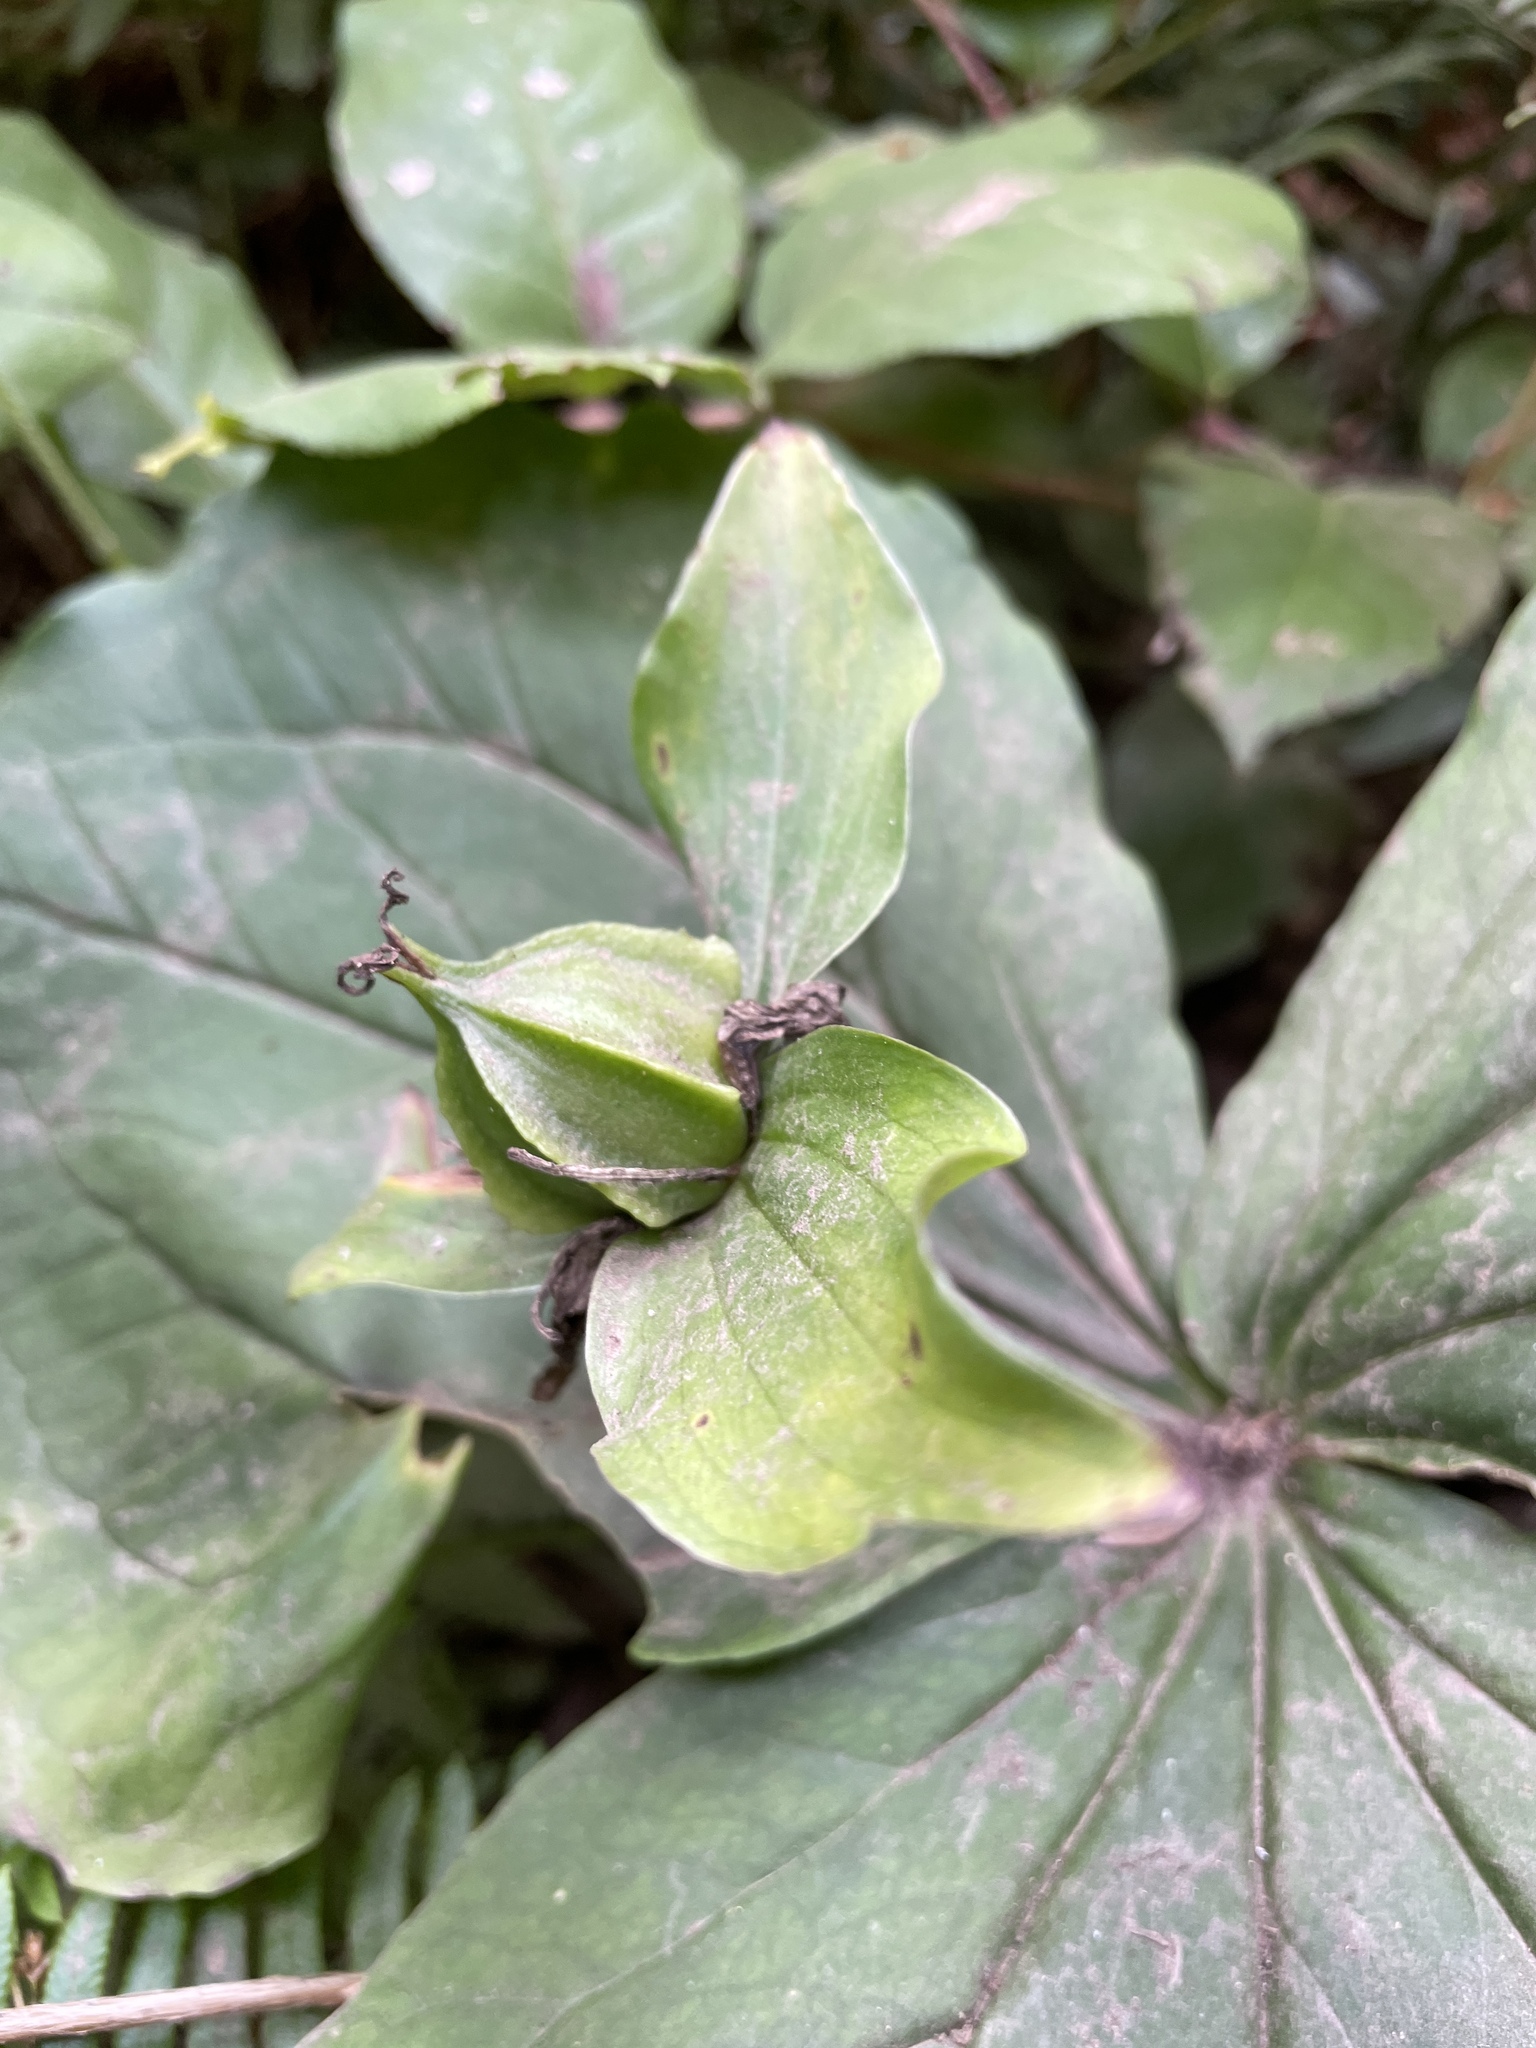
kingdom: Plantae
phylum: Tracheophyta
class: Liliopsida
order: Liliales
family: Melanthiaceae
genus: Trillium
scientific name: Trillium ovatum
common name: Pacific trillium
